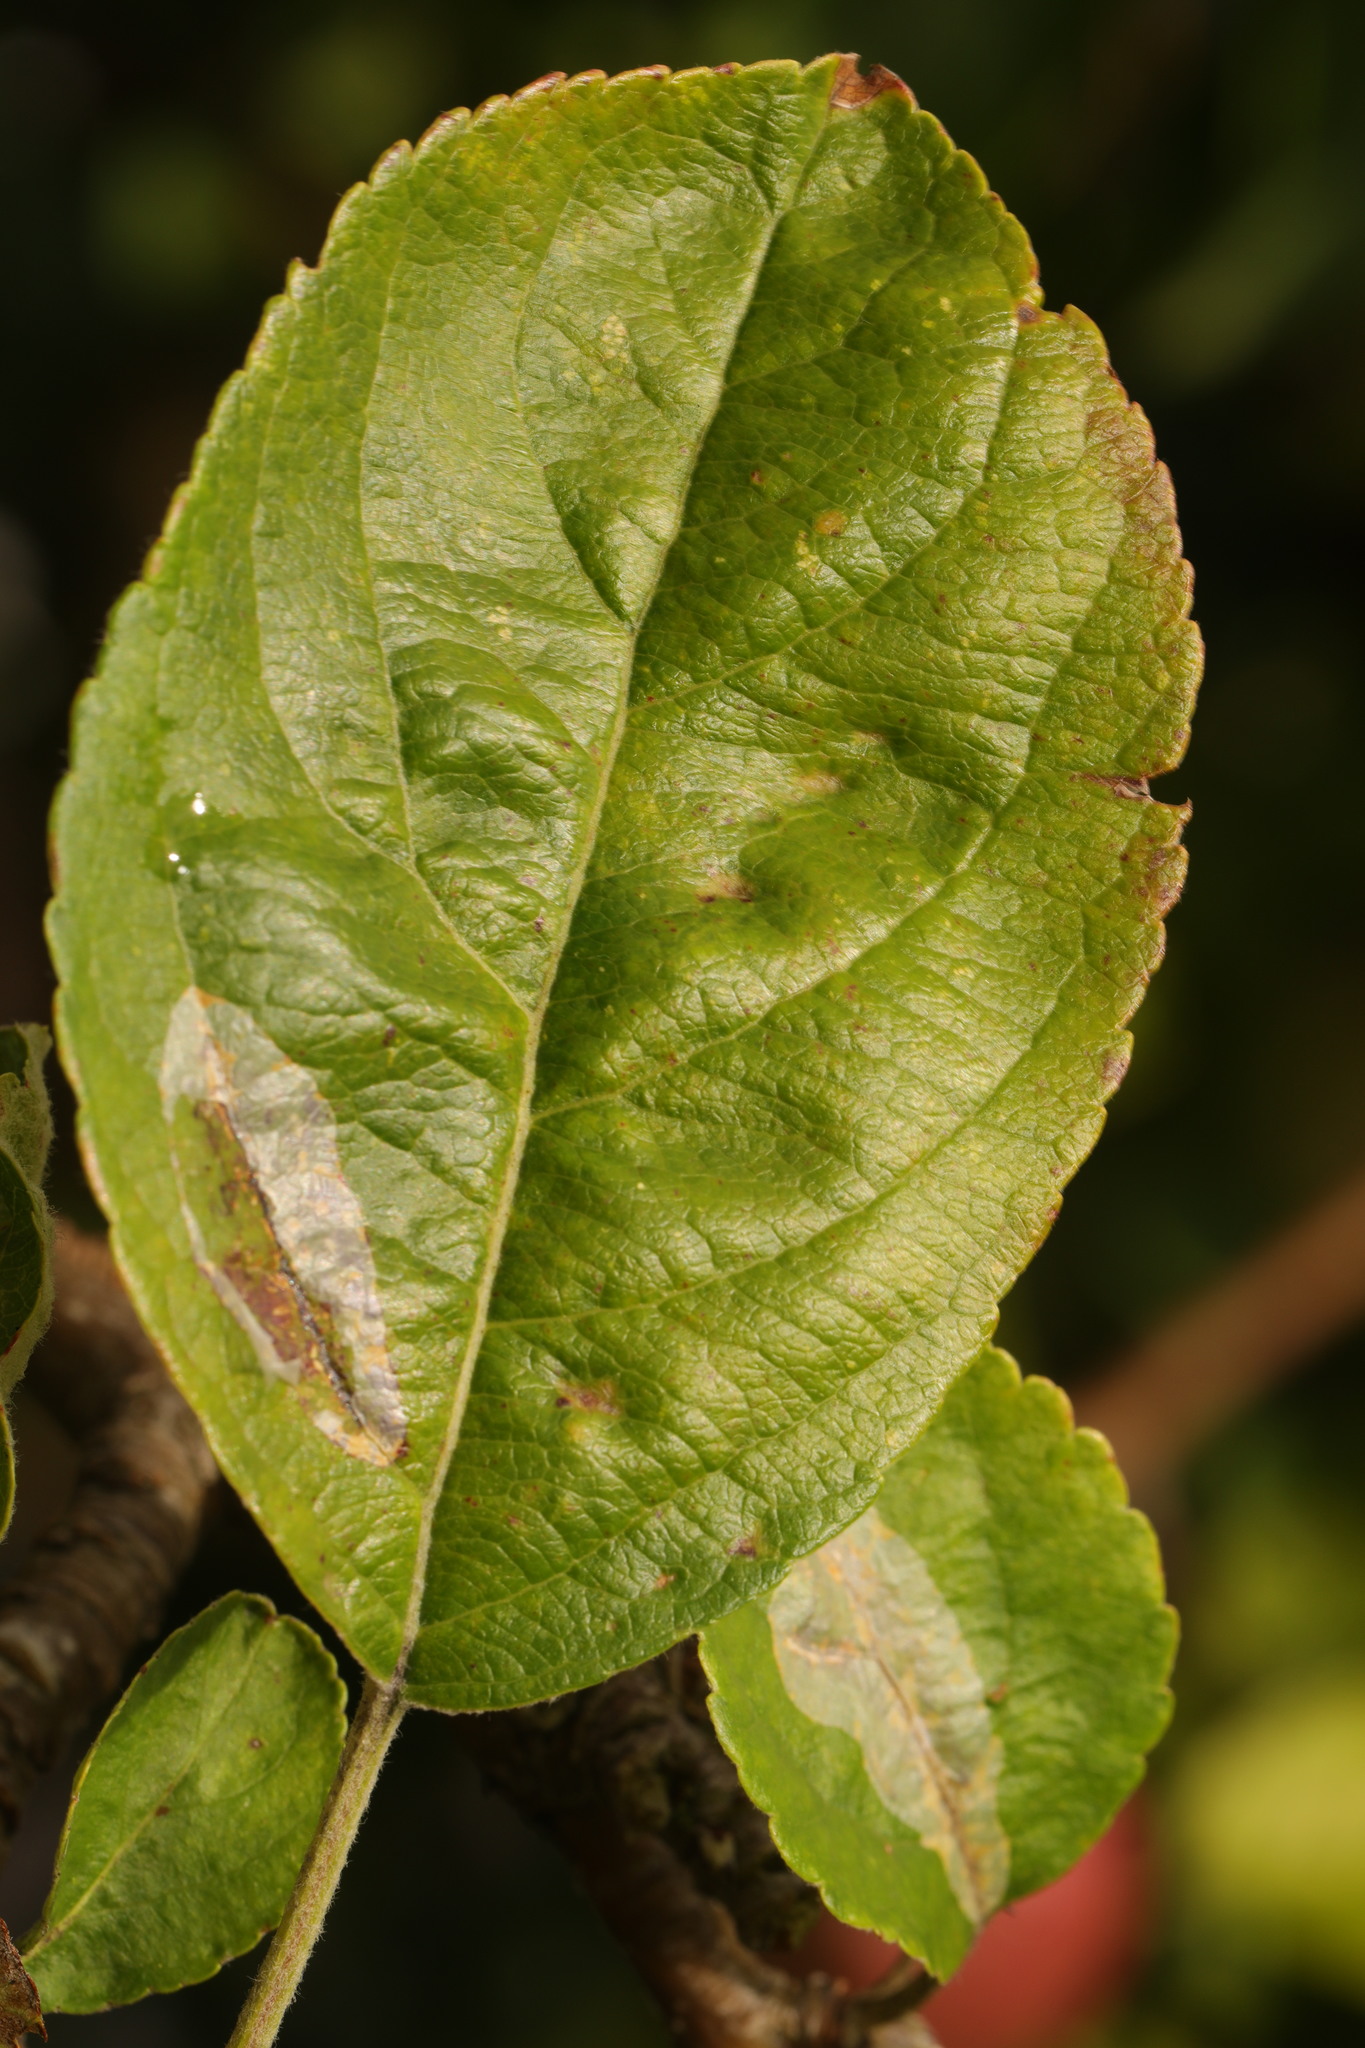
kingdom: Animalia
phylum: Arthropoda
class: Insecta
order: Lepidoptera
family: Gracillariidae
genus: Phyllonorycter
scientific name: Phyllonorycter leucographella
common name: Firethorn leaf-miner
